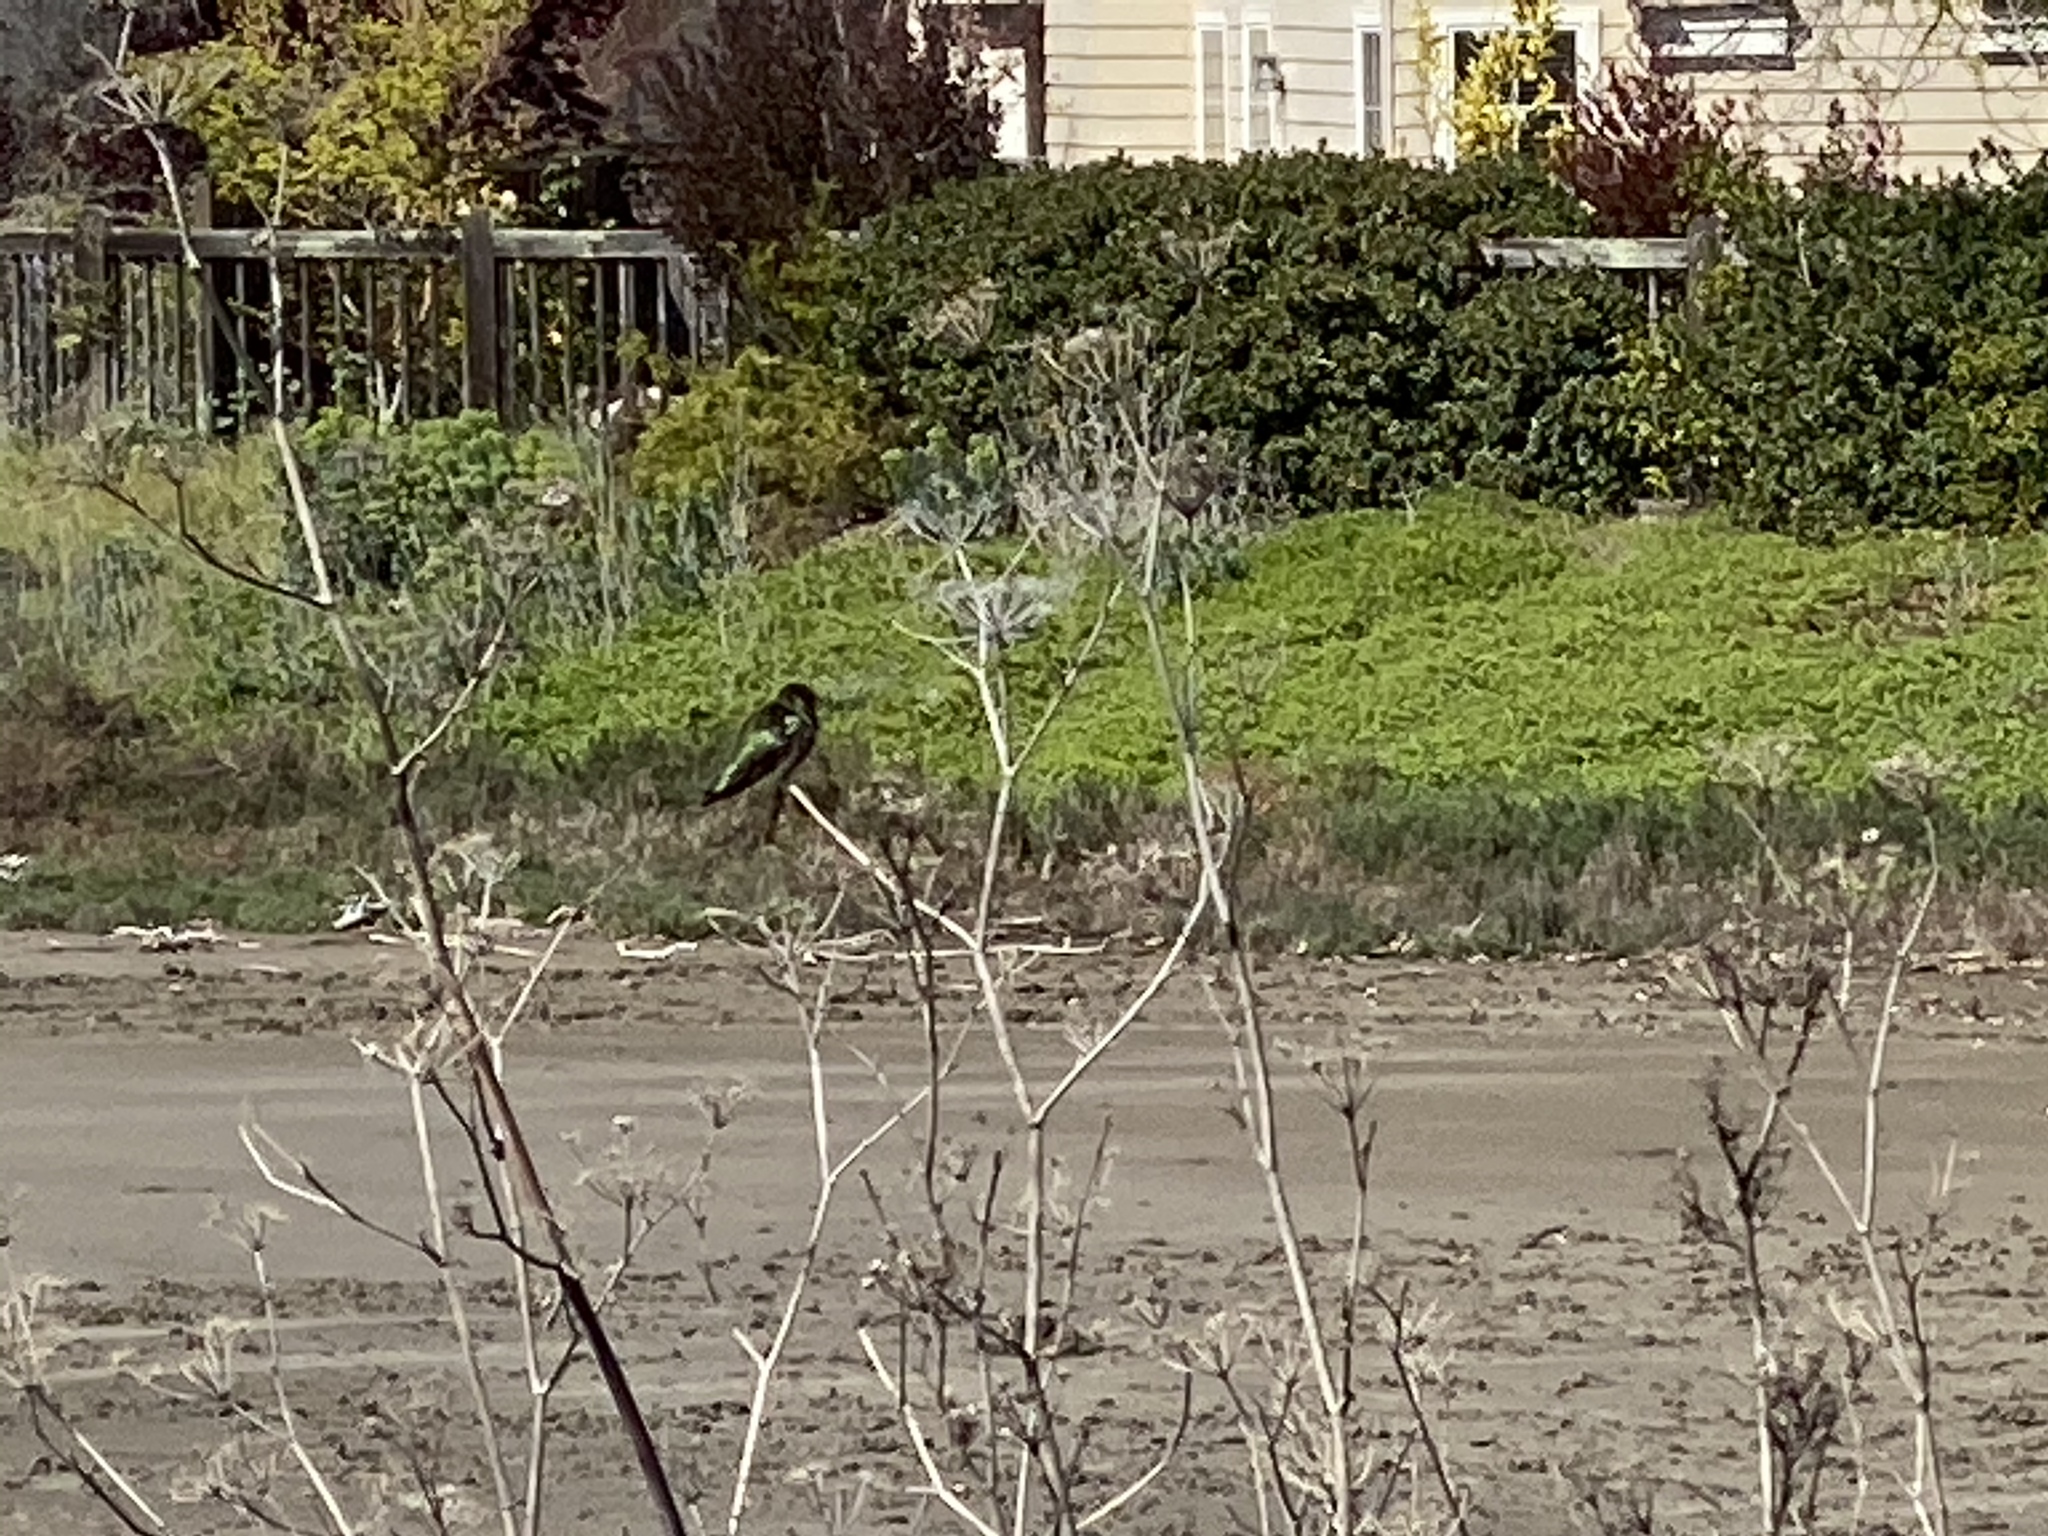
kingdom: Animalia
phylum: Chordata
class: Aves
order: Apodiformes
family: Trochilidae
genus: Calypte
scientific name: Calypte anna
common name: Anna's hummingbird
